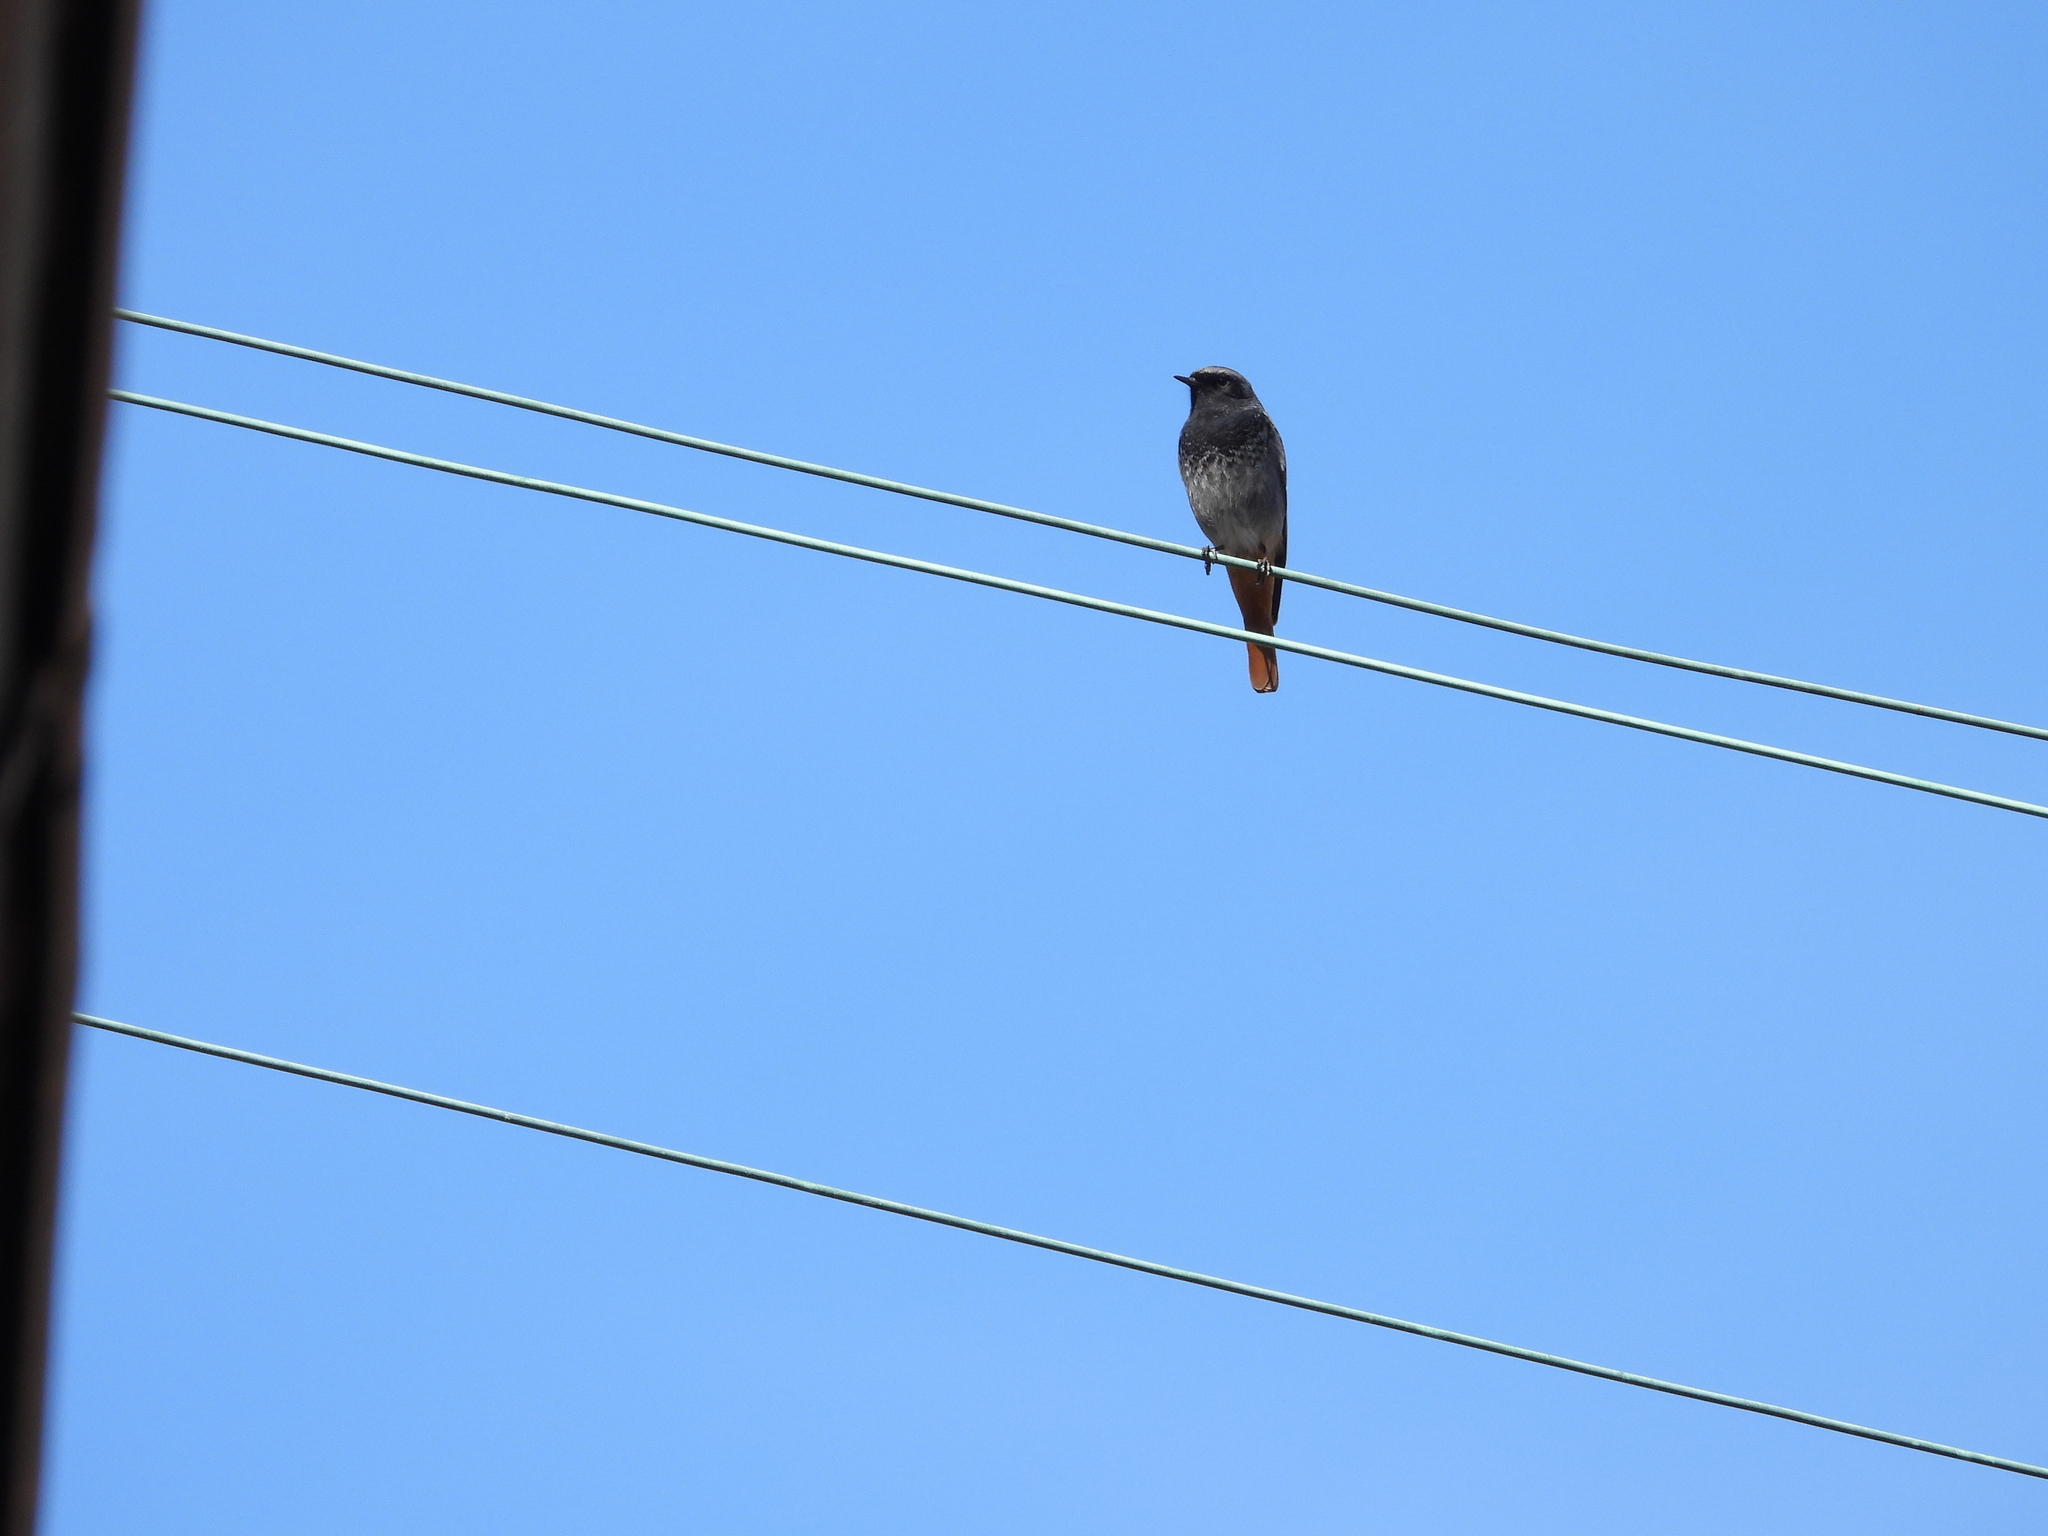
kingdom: Animalia
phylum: Chordata
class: Aves
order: Passeriformes
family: Muscicapidae
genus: Phoenicurus
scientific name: Phoenicurus ochruros
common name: Black redstart
